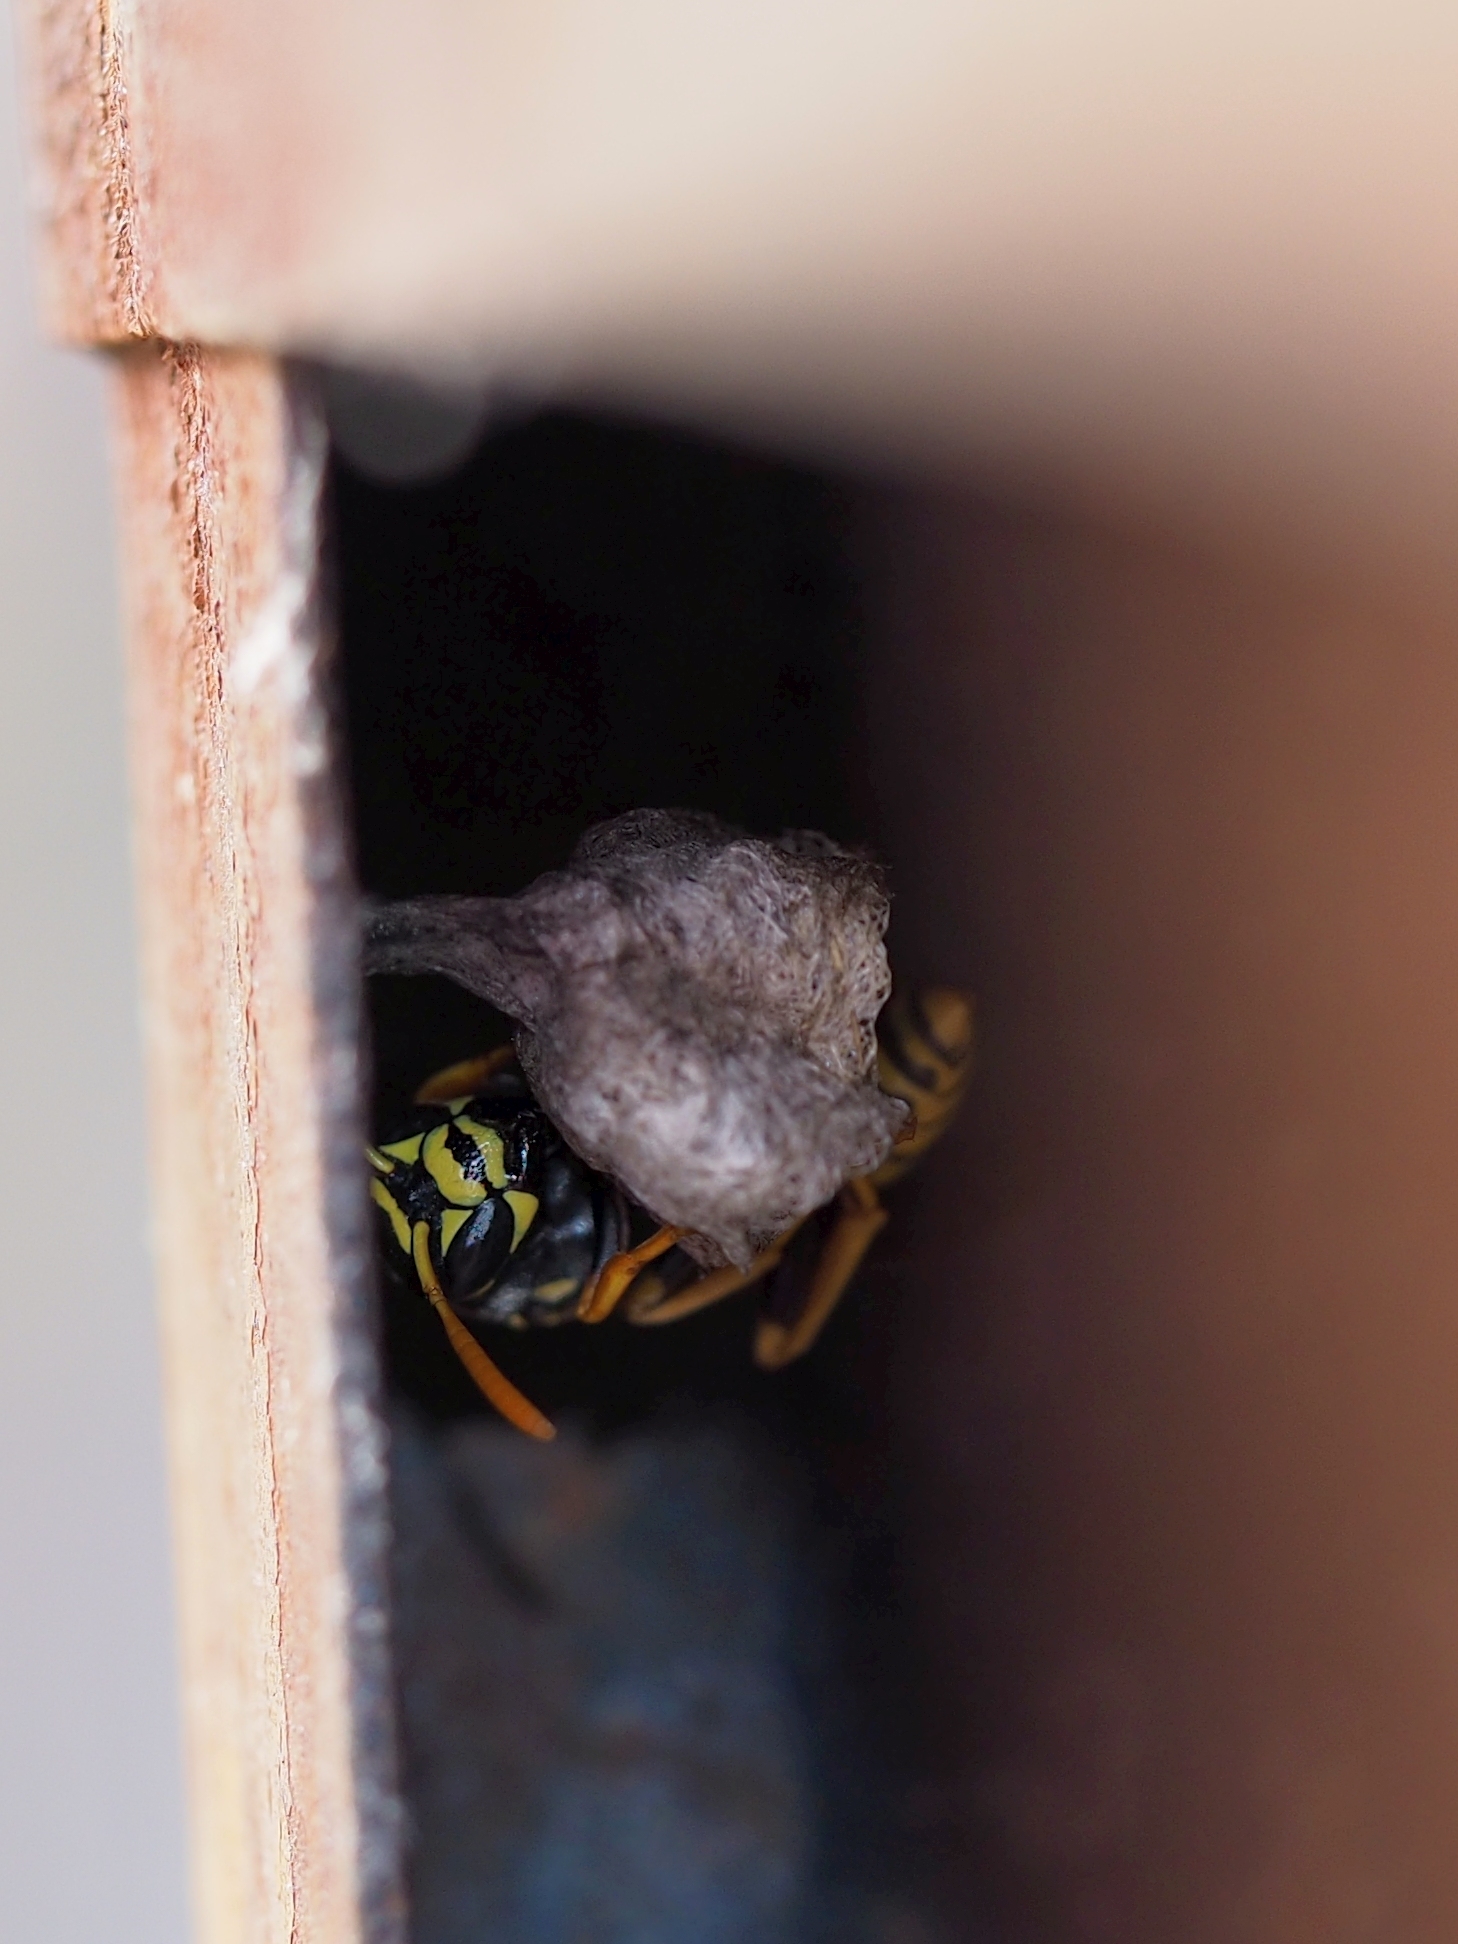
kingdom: Animalia
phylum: Arthropoda
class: Insecta
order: Hymenoptera
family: Eumenidae
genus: Polistes
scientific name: Polistes dominula
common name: Paper wasp
